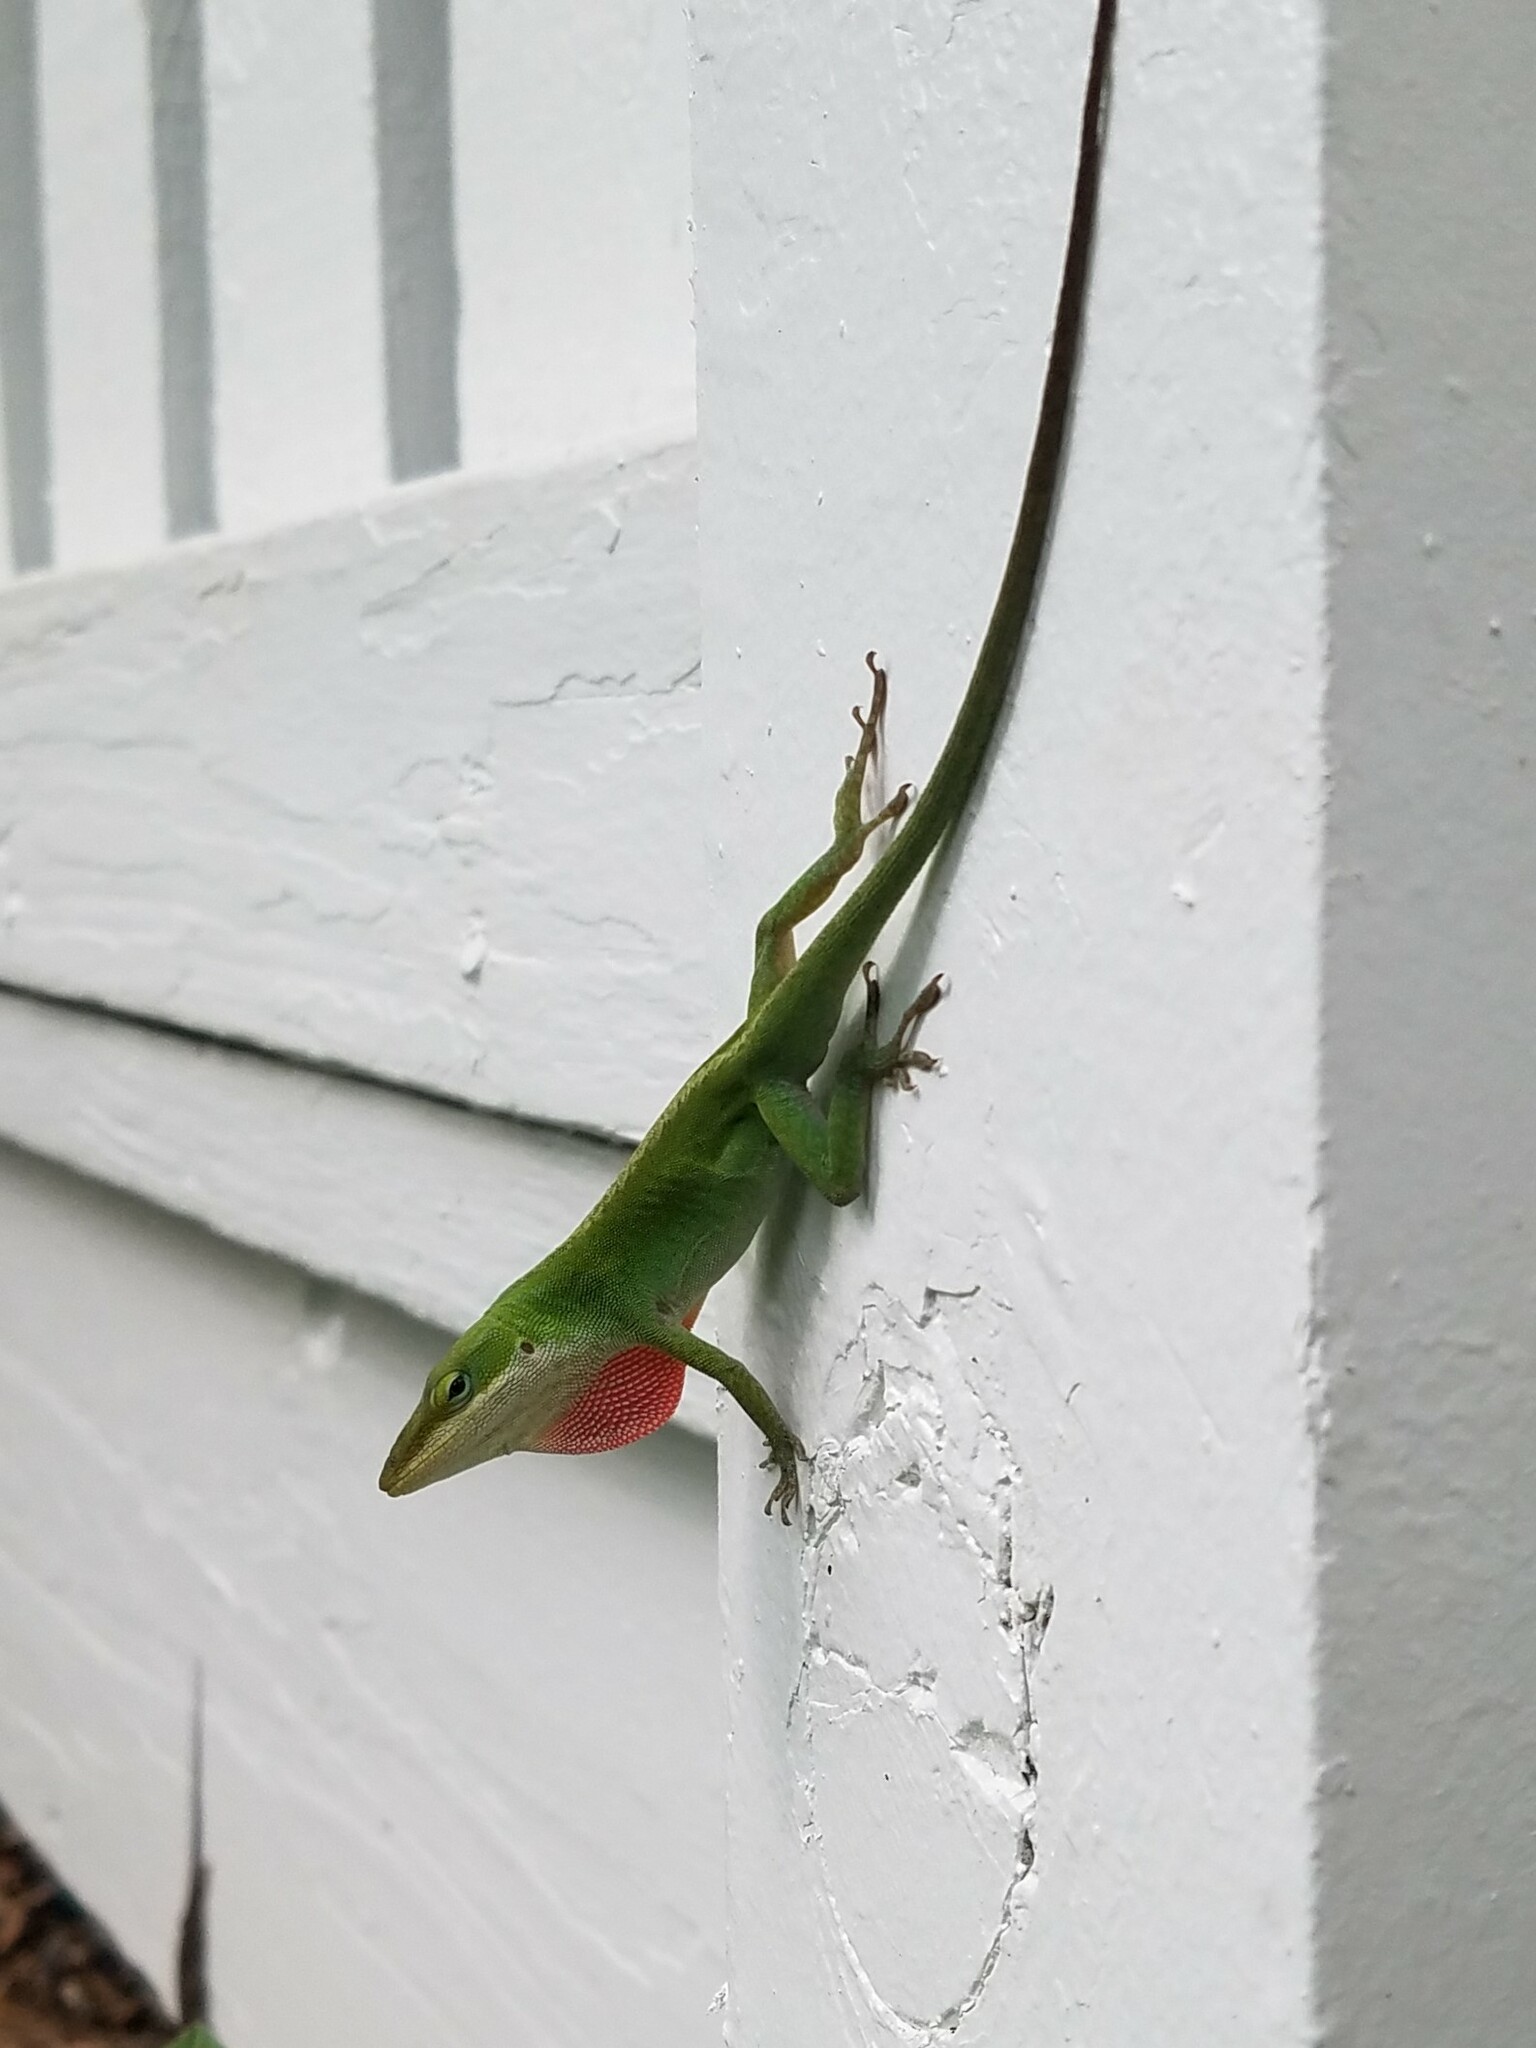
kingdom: Animalia
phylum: Chordata
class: Squamata
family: Dactyloidae
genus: Anolis
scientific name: Anolis carolinensis
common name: Green anole
